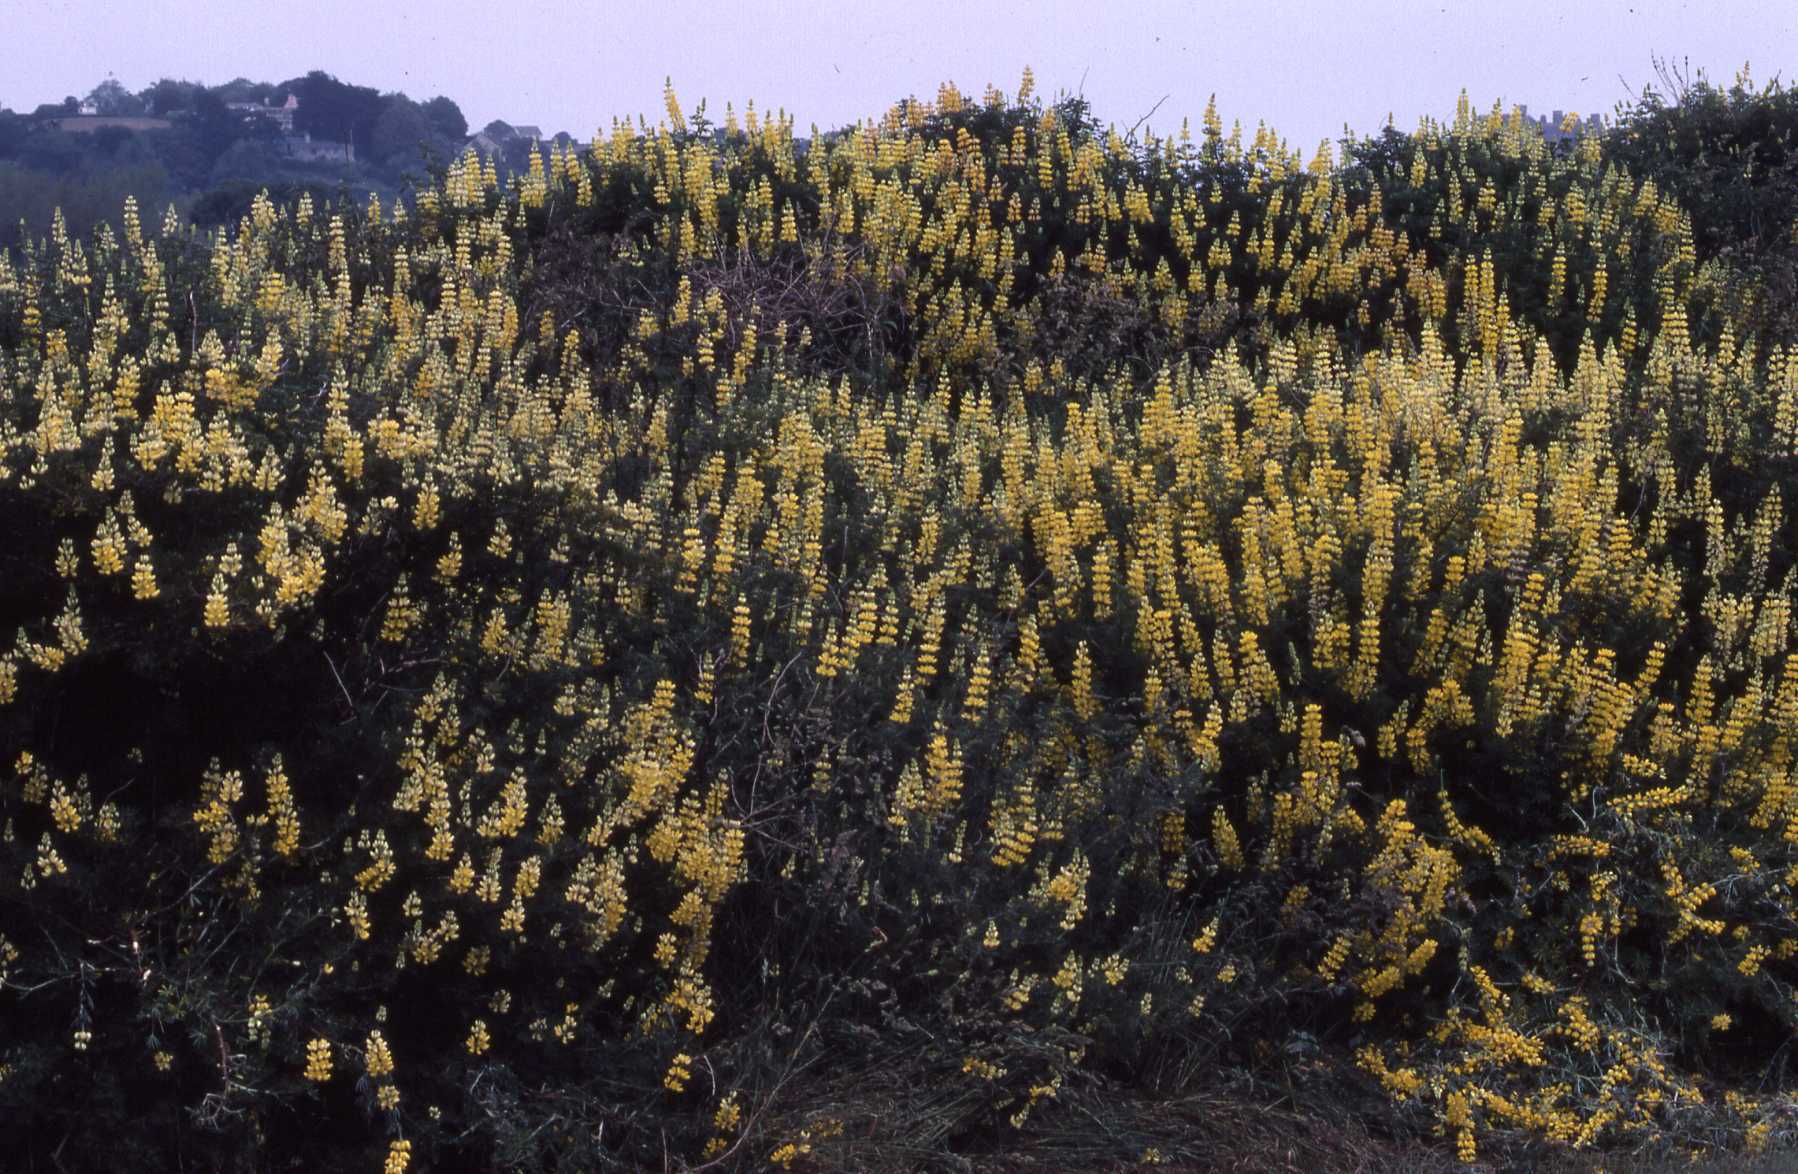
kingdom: Plantae
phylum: Tracheophyta
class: Magnoliopsida
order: Fabales
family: Fabaceae
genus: Lupinus
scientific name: Lupinus arboreus
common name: Yellow bush lupine
